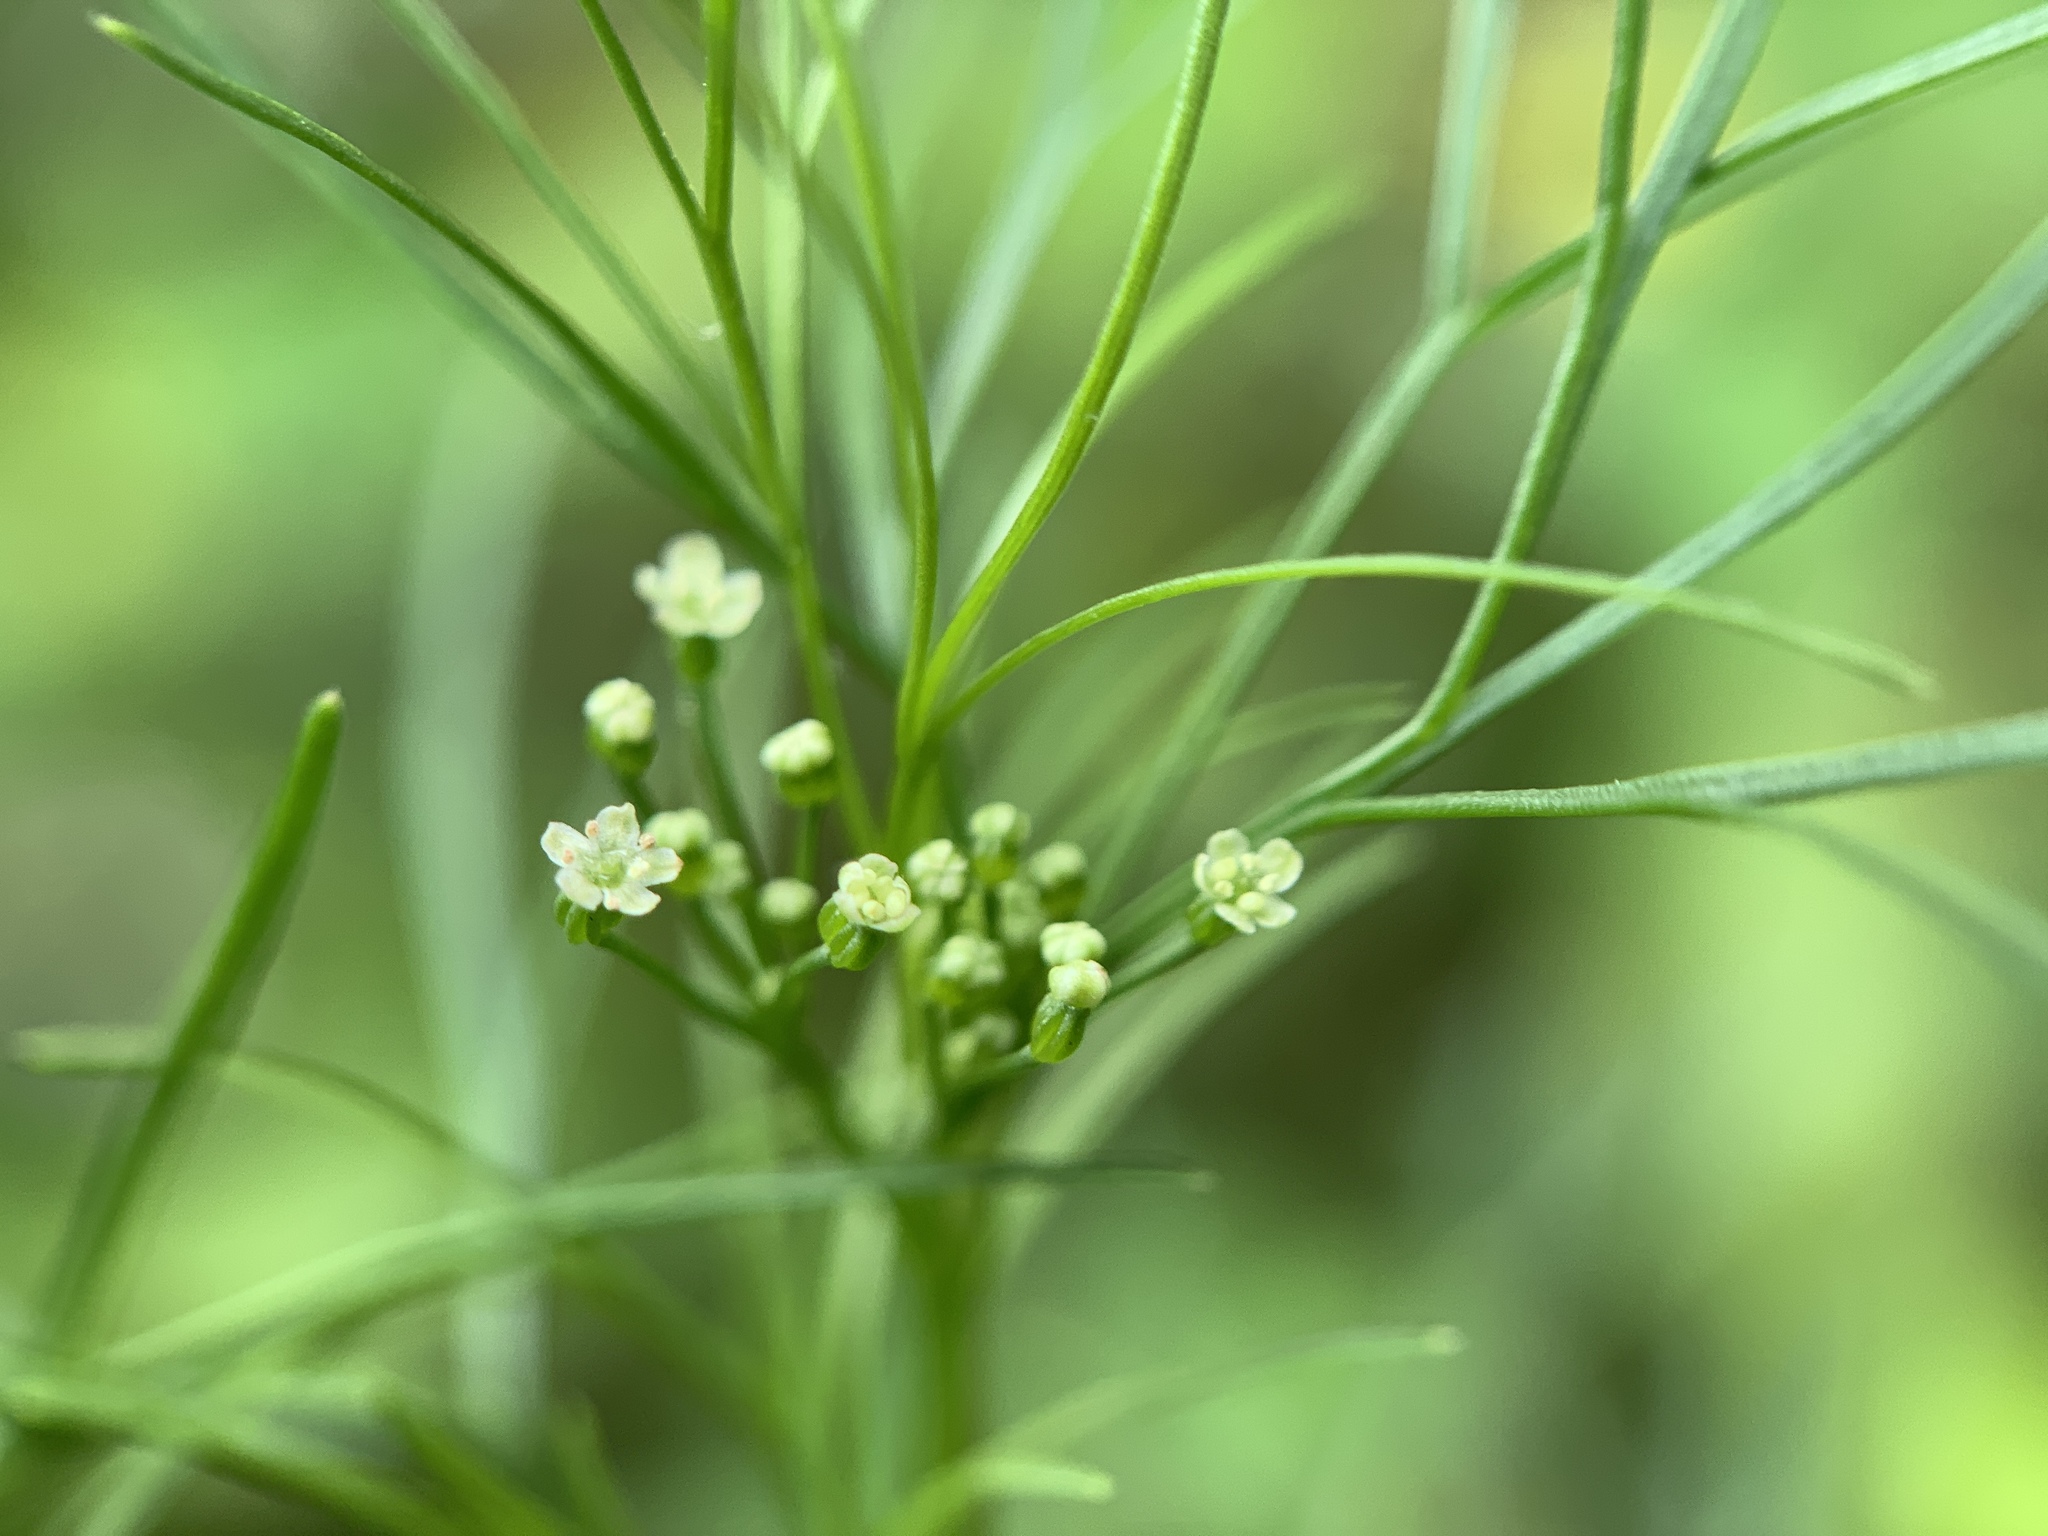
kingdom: Plantae
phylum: Tracheophyta
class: Magnoliopsida
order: Apiales
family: Apiaceae
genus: Cyclospermum
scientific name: Cyclospermum leptophyllum
